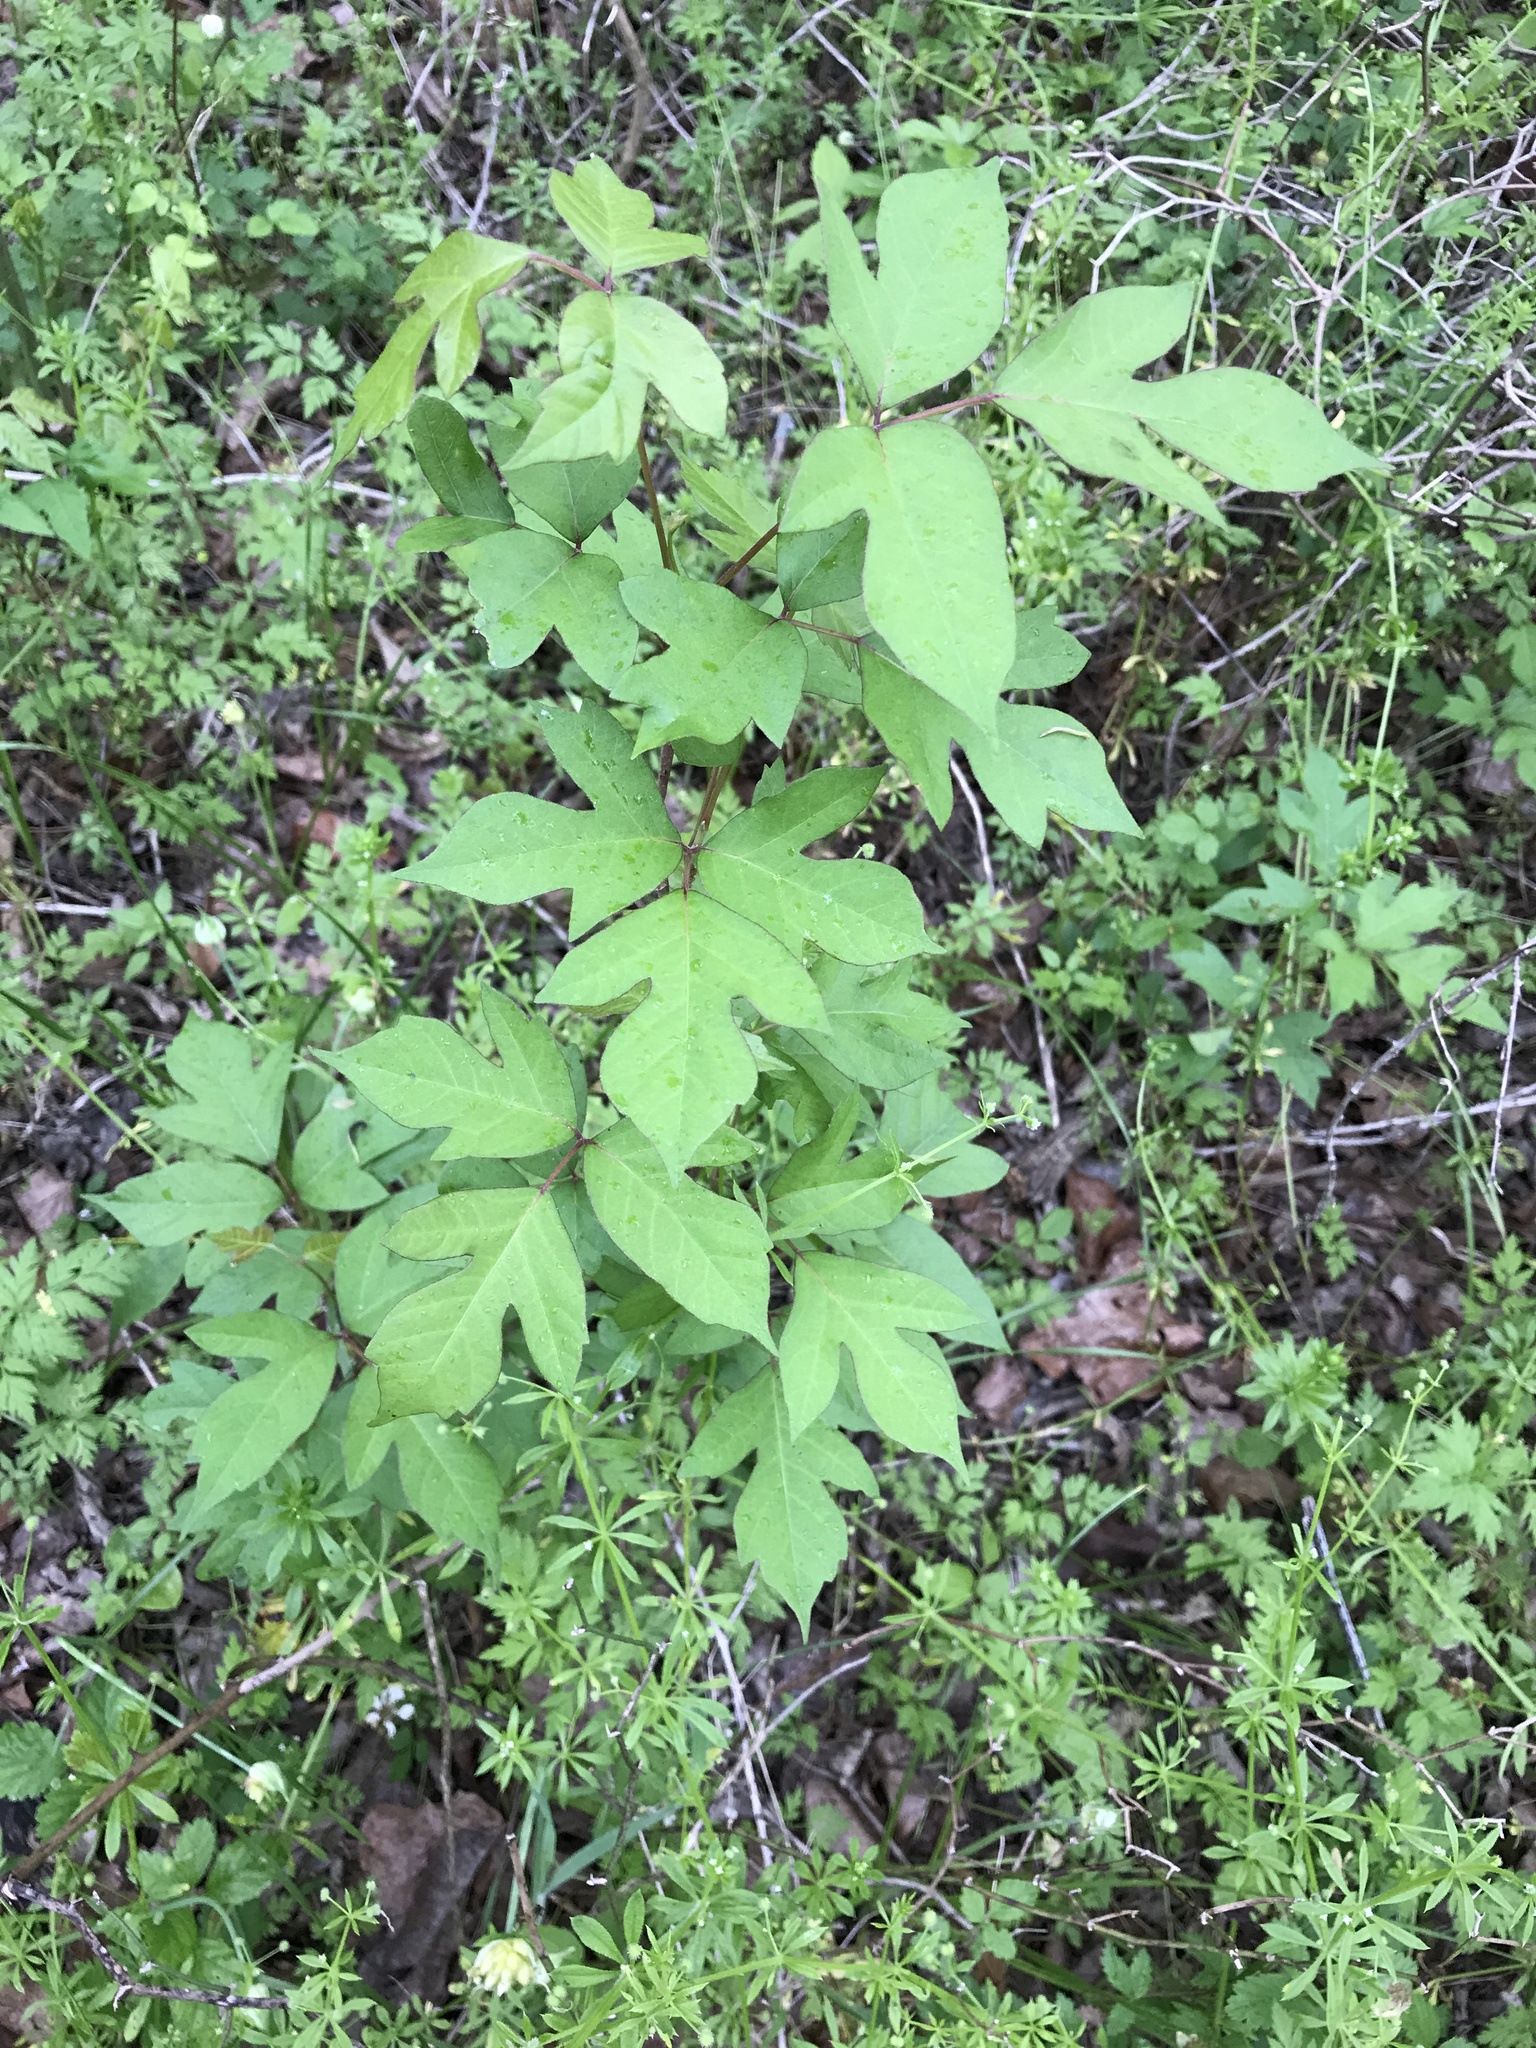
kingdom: Plantae
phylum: Tracheophyta
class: Magnoliopsida
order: Sapindales
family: Anacardiaceae
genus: Toxicodendron
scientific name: Toxicodendron radicans
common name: Poison ivy
